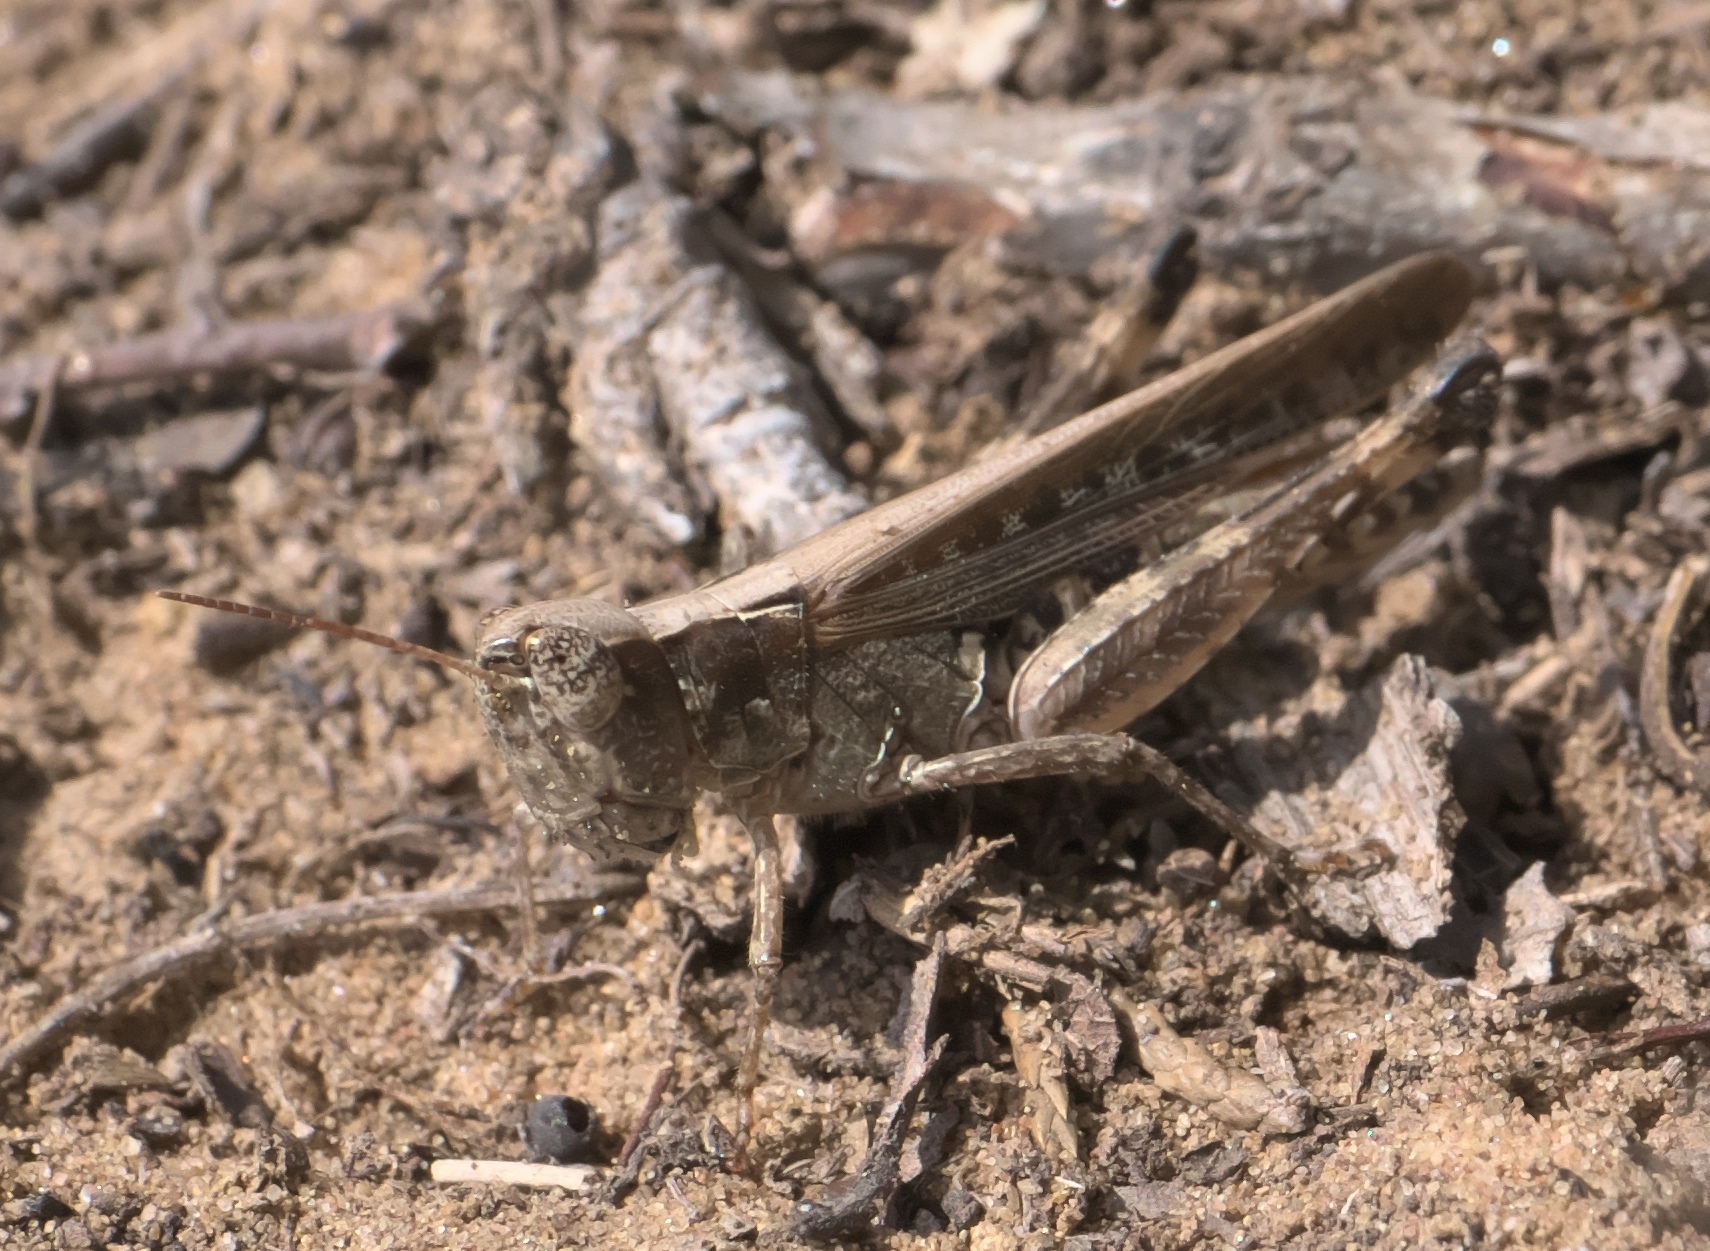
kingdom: Animalia
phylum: Arthropoda
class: Insecta
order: Orthoptera
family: Acrididae
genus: Orphulella
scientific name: Orphulella pelidna
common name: Spotted-wing grasshopper
